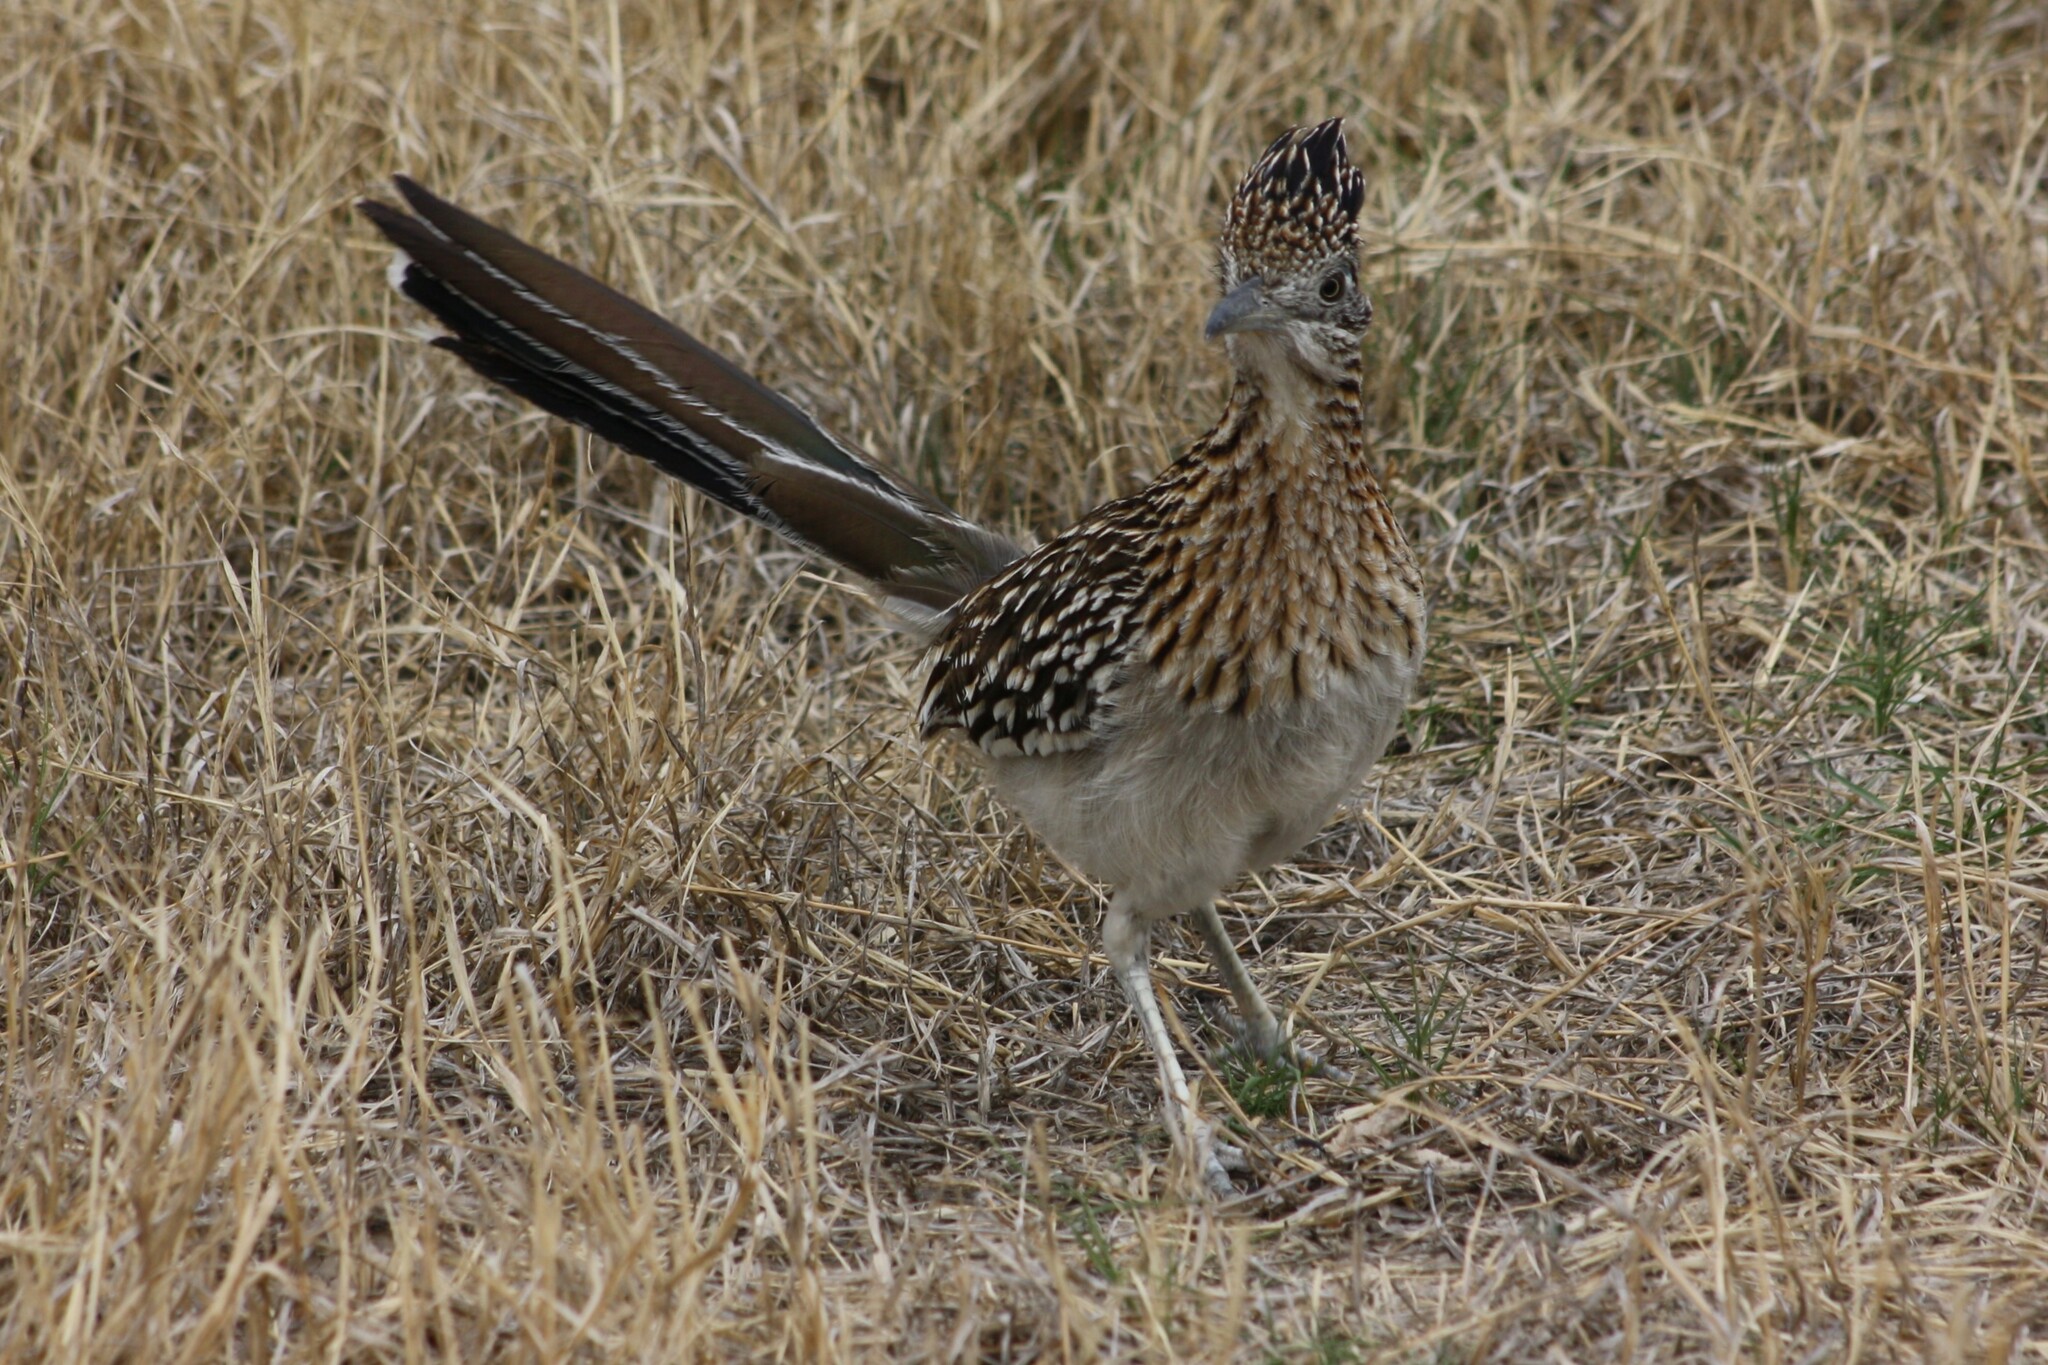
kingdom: Animalia
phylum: Chordata
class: Aves
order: Cuculiformes
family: Cuculidae
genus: Geococcyx
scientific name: Geococcyx californianus
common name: Greater roadrunner
